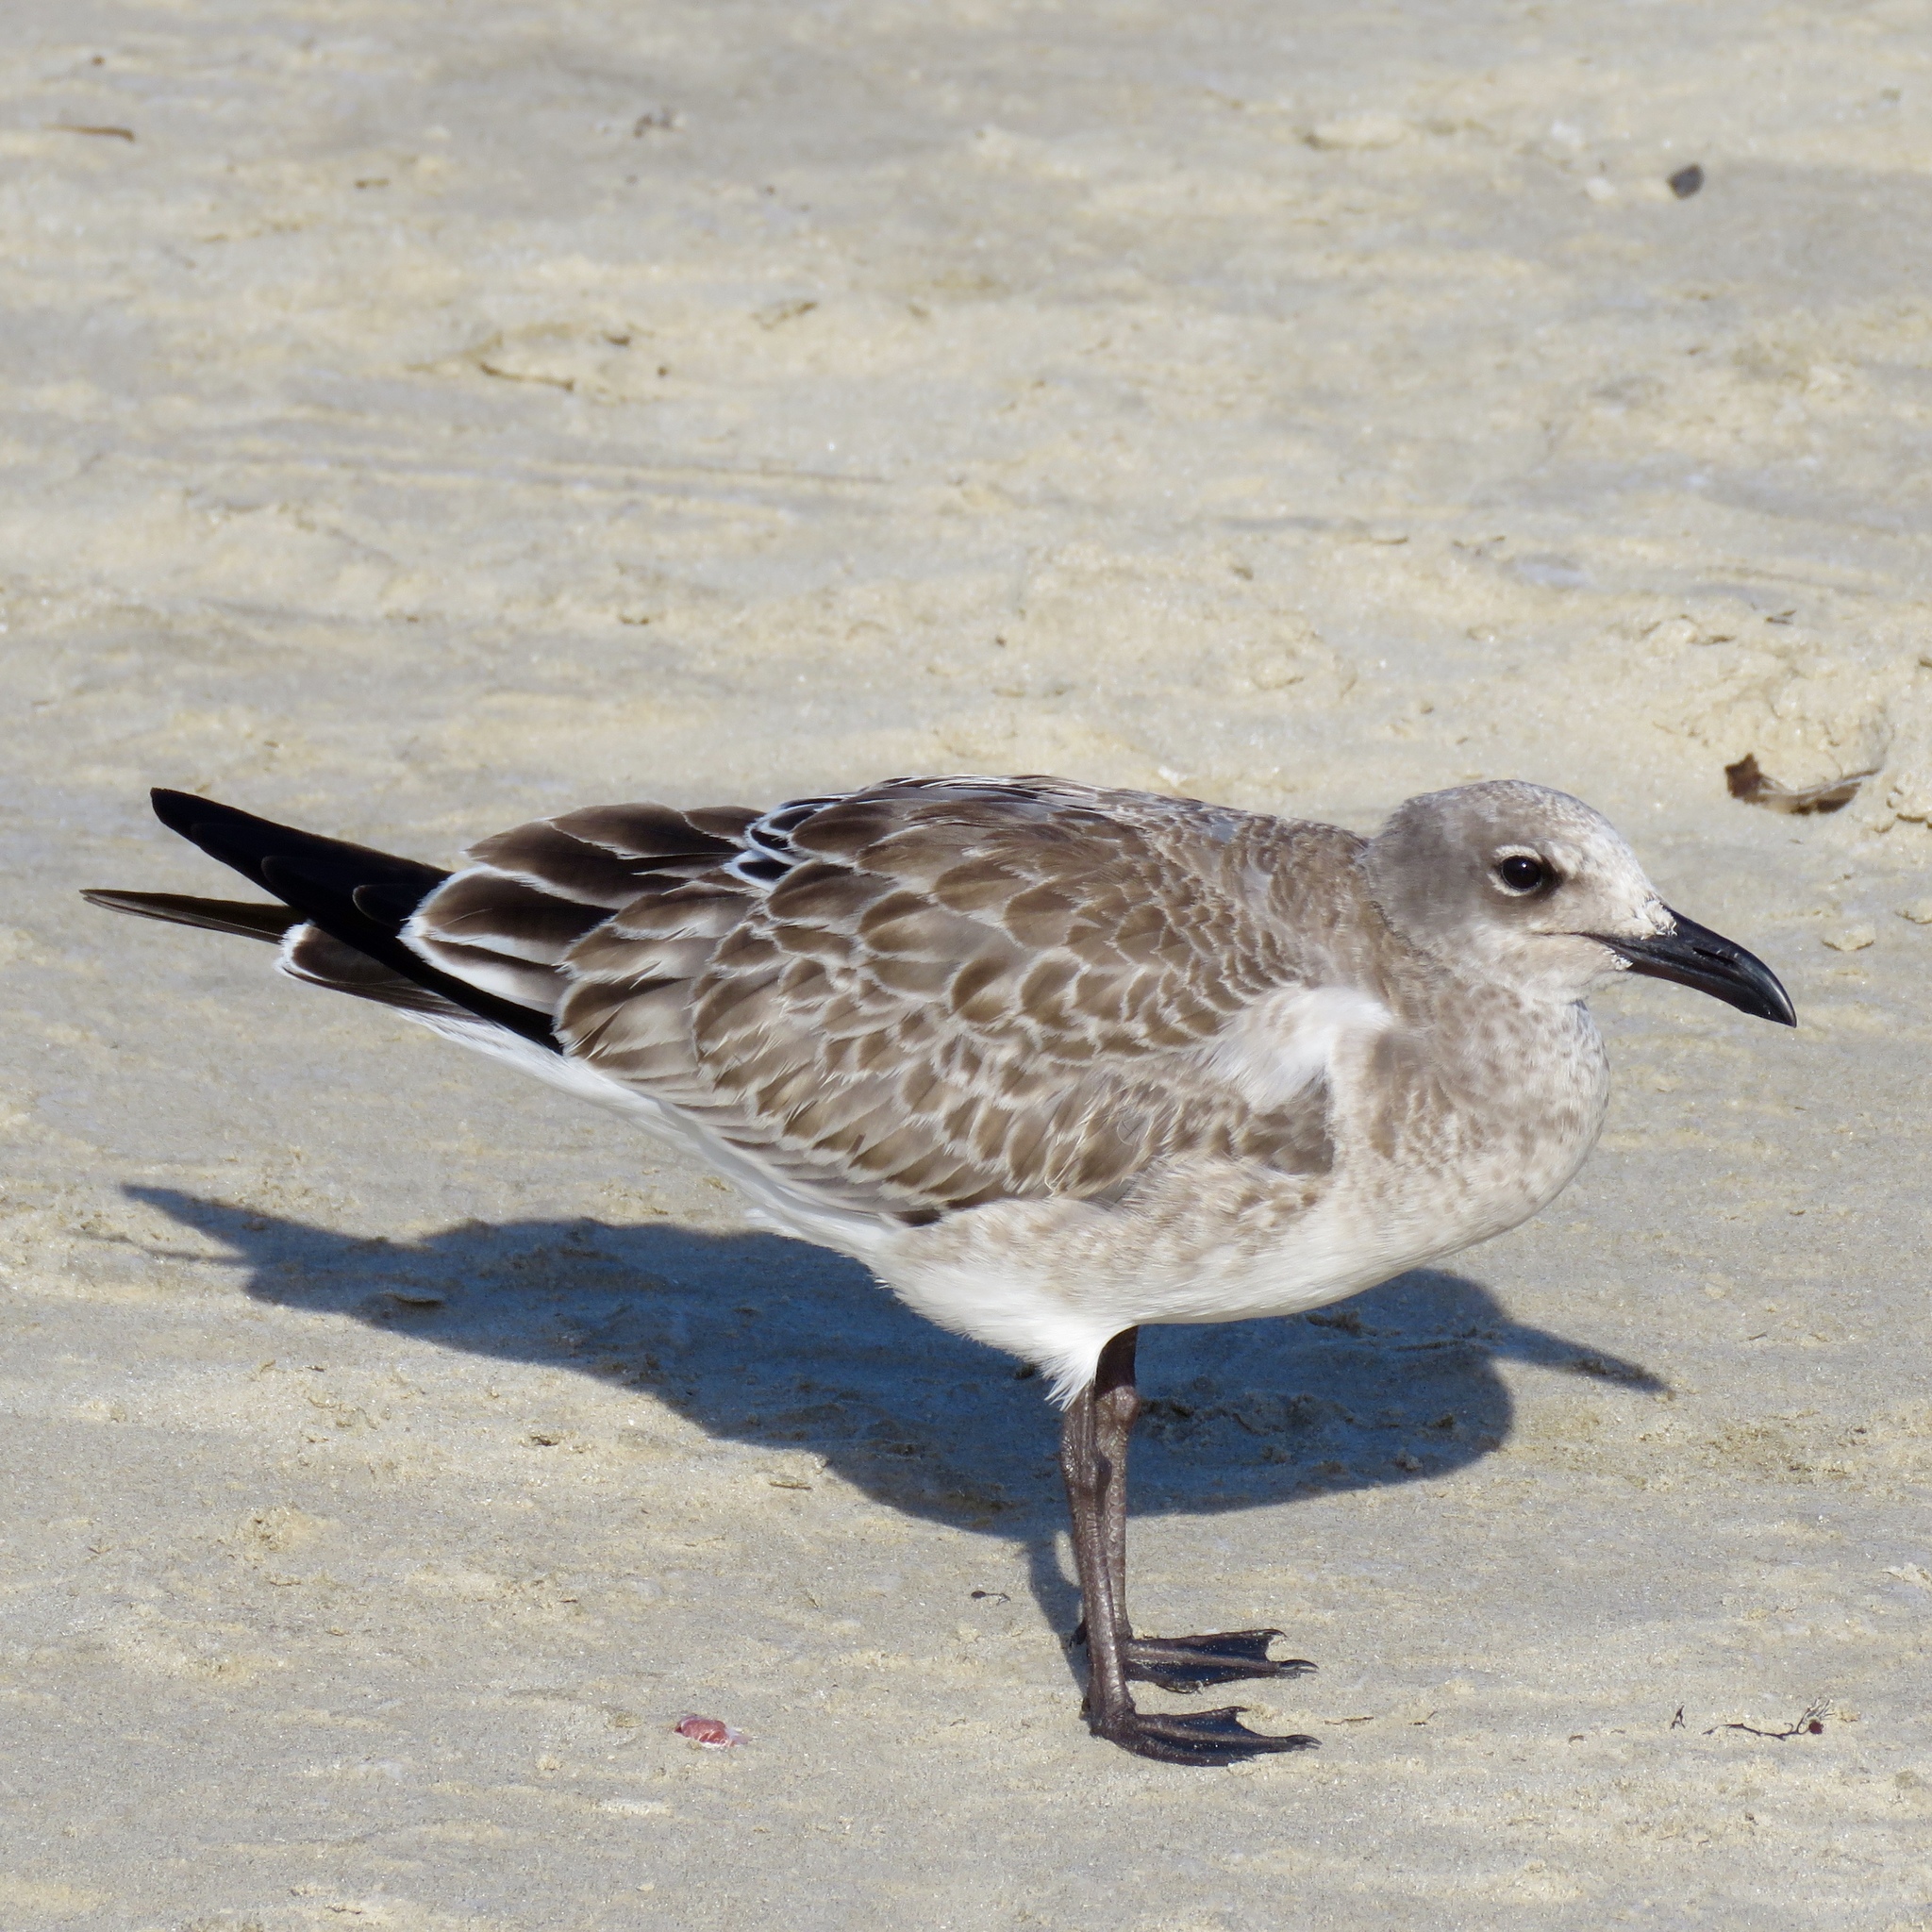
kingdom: Animalia
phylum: Chordata
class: Aves
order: Charadriiformes
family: Laridae
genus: Leucophaeus
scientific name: Leucophaeus atricilla
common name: Laughing gull
